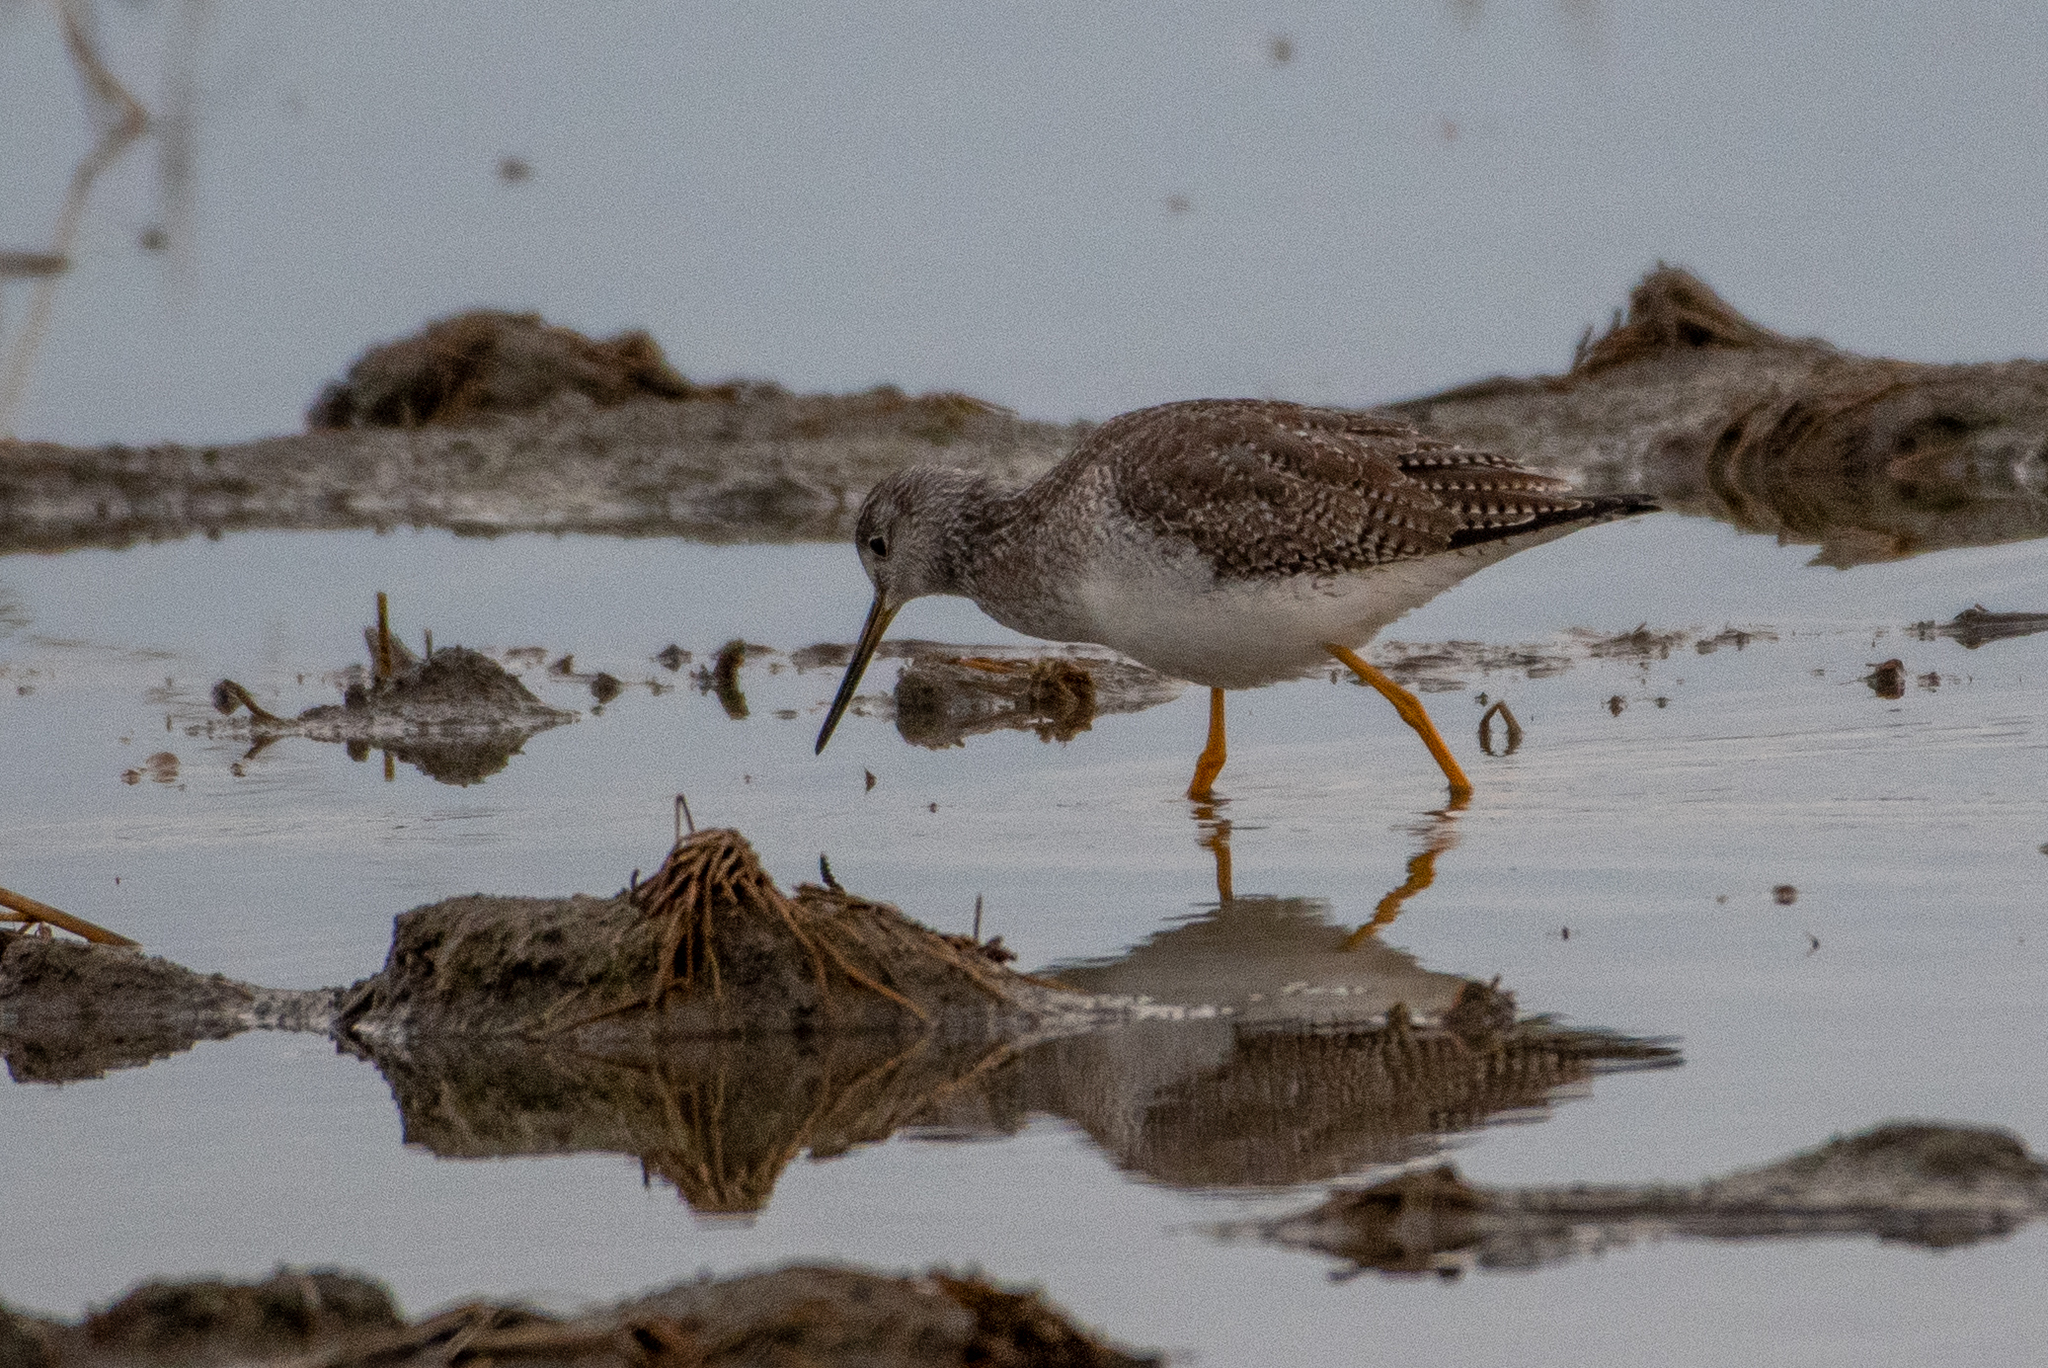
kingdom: Animalia
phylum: Chordata
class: Aves
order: Charadriiformes
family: Scolopacidae
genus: Tringa
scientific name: Tringa melanoleuca
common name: Greater yellowlegs
